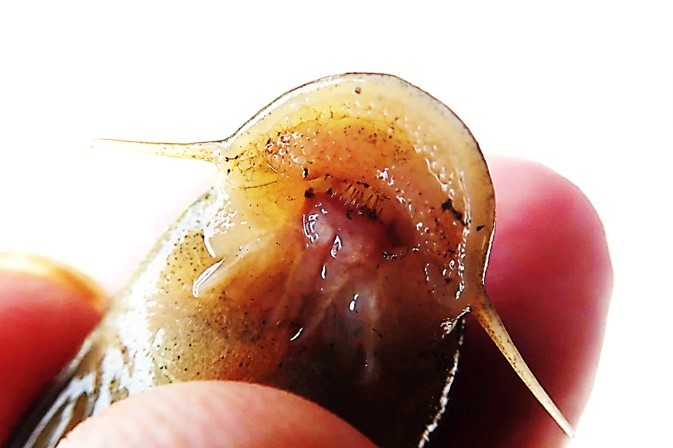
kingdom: Animalia
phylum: Chordata
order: Siluriformes
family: Mochokidae
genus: Chiloglanis
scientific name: Chiloglanis bifurcus
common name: Incomati suckermouth
